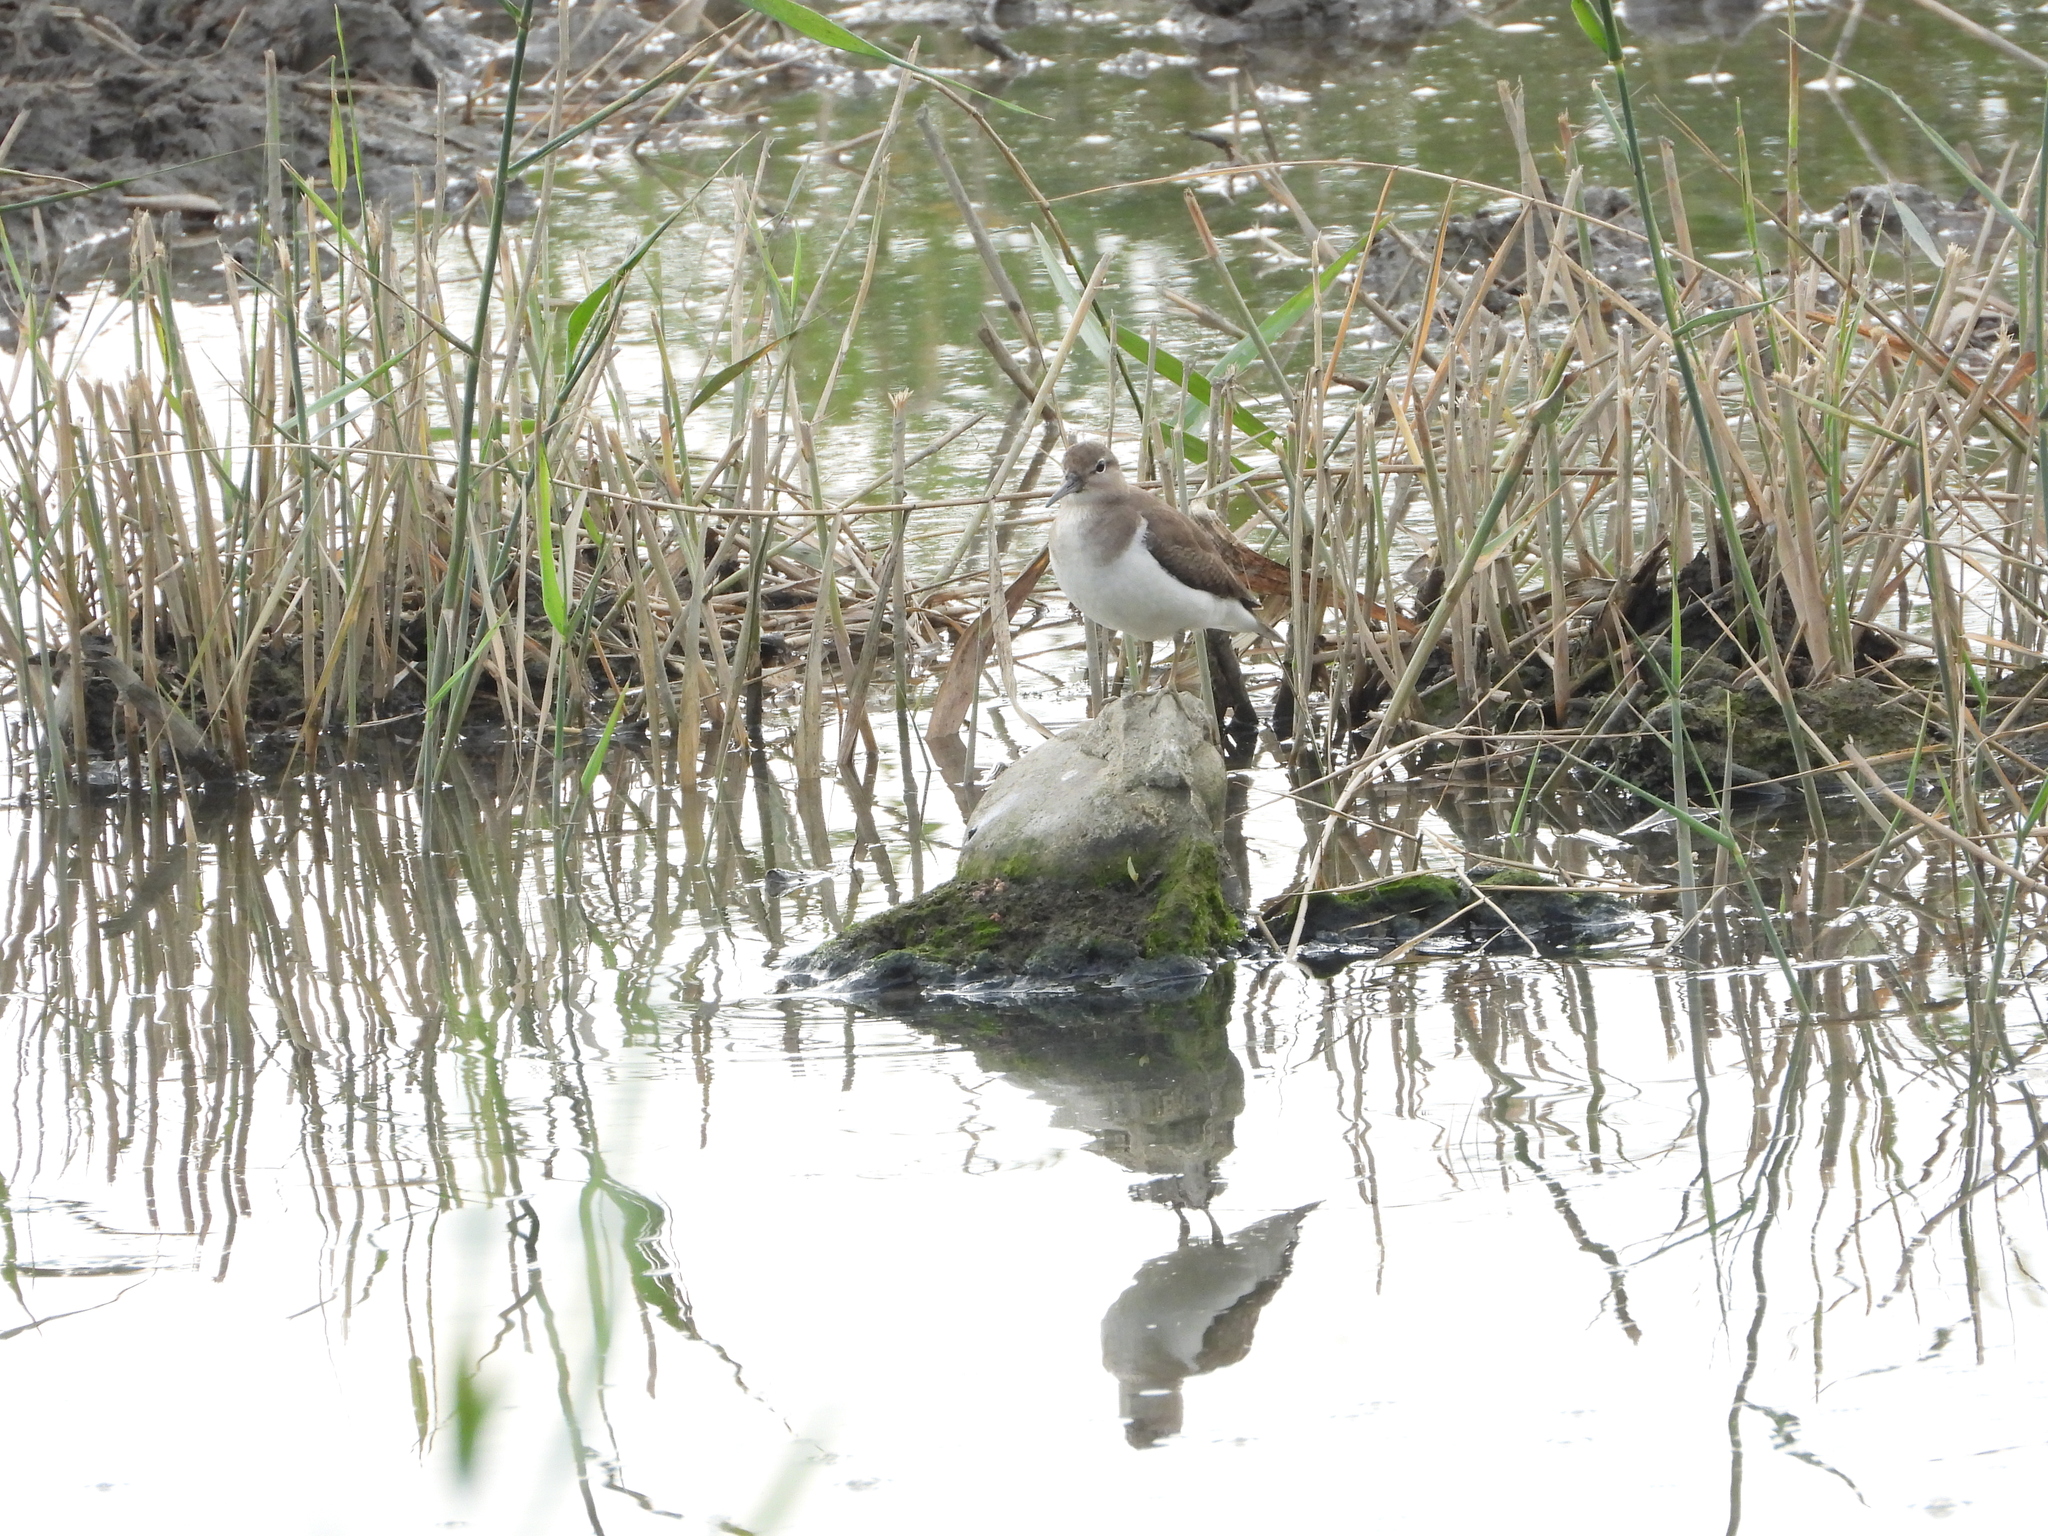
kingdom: Animalia
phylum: Chordata
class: Aves
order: Charadriiformes
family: Scolopacidae
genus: Actitis
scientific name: Actitis hypoleucos
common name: Common sandpiper
